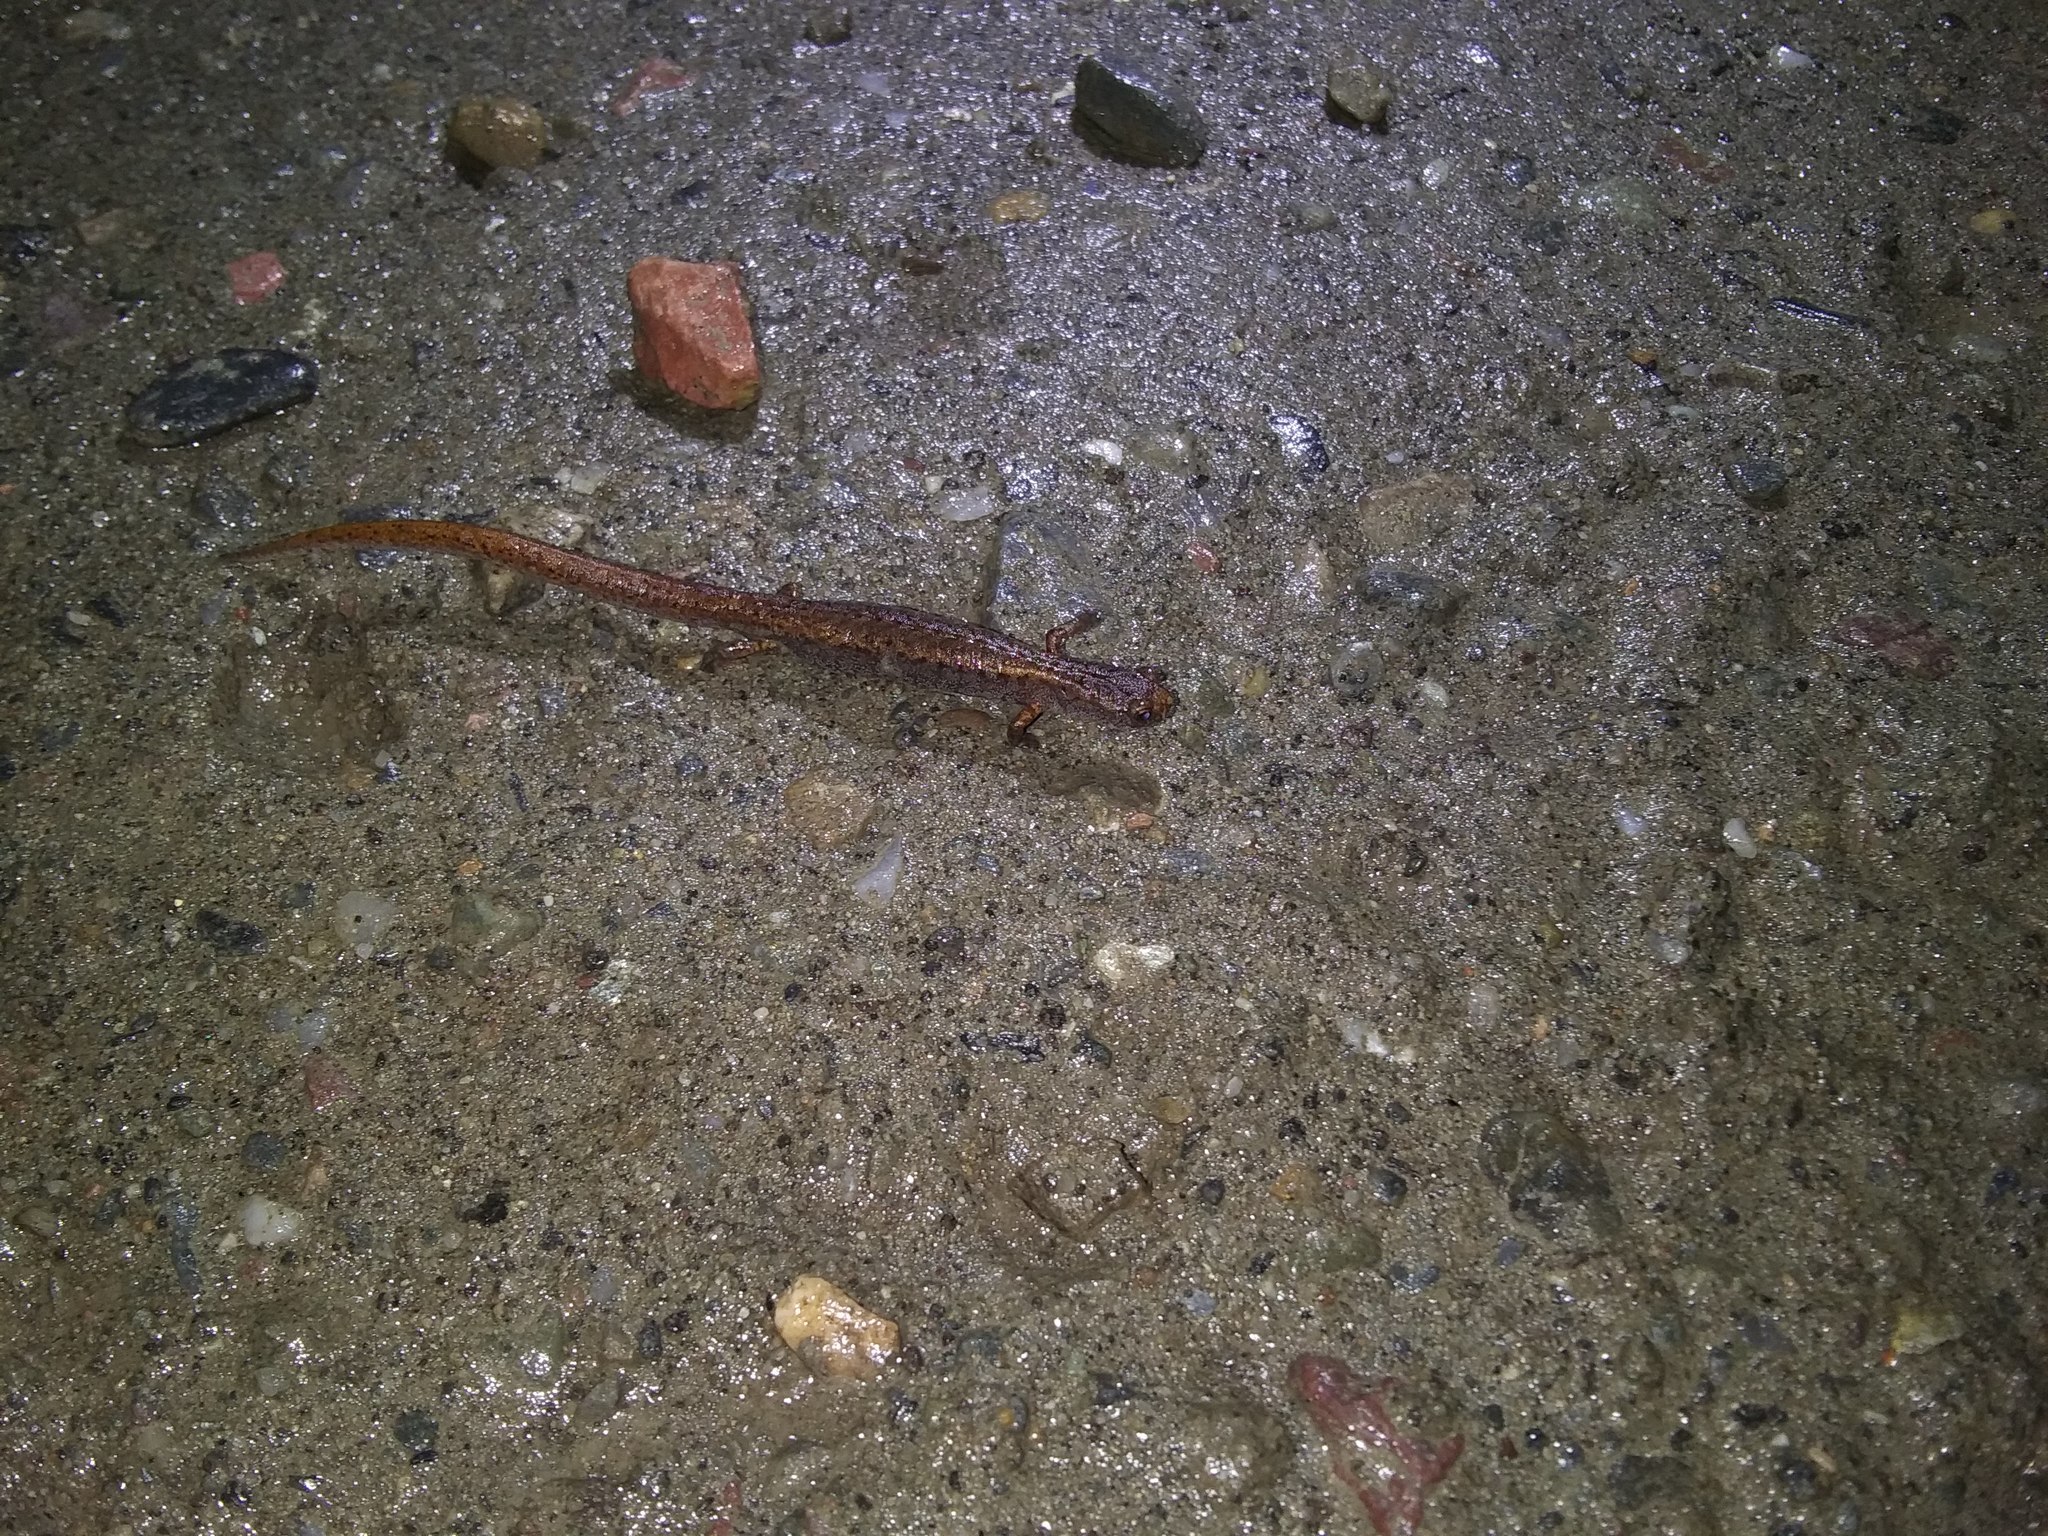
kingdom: Animalia
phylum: Chordata
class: Amphibia
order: Caudata
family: Plethodontidae
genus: Hemidactylium
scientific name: Hemidactylium scutatum
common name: Four-toed salamander
